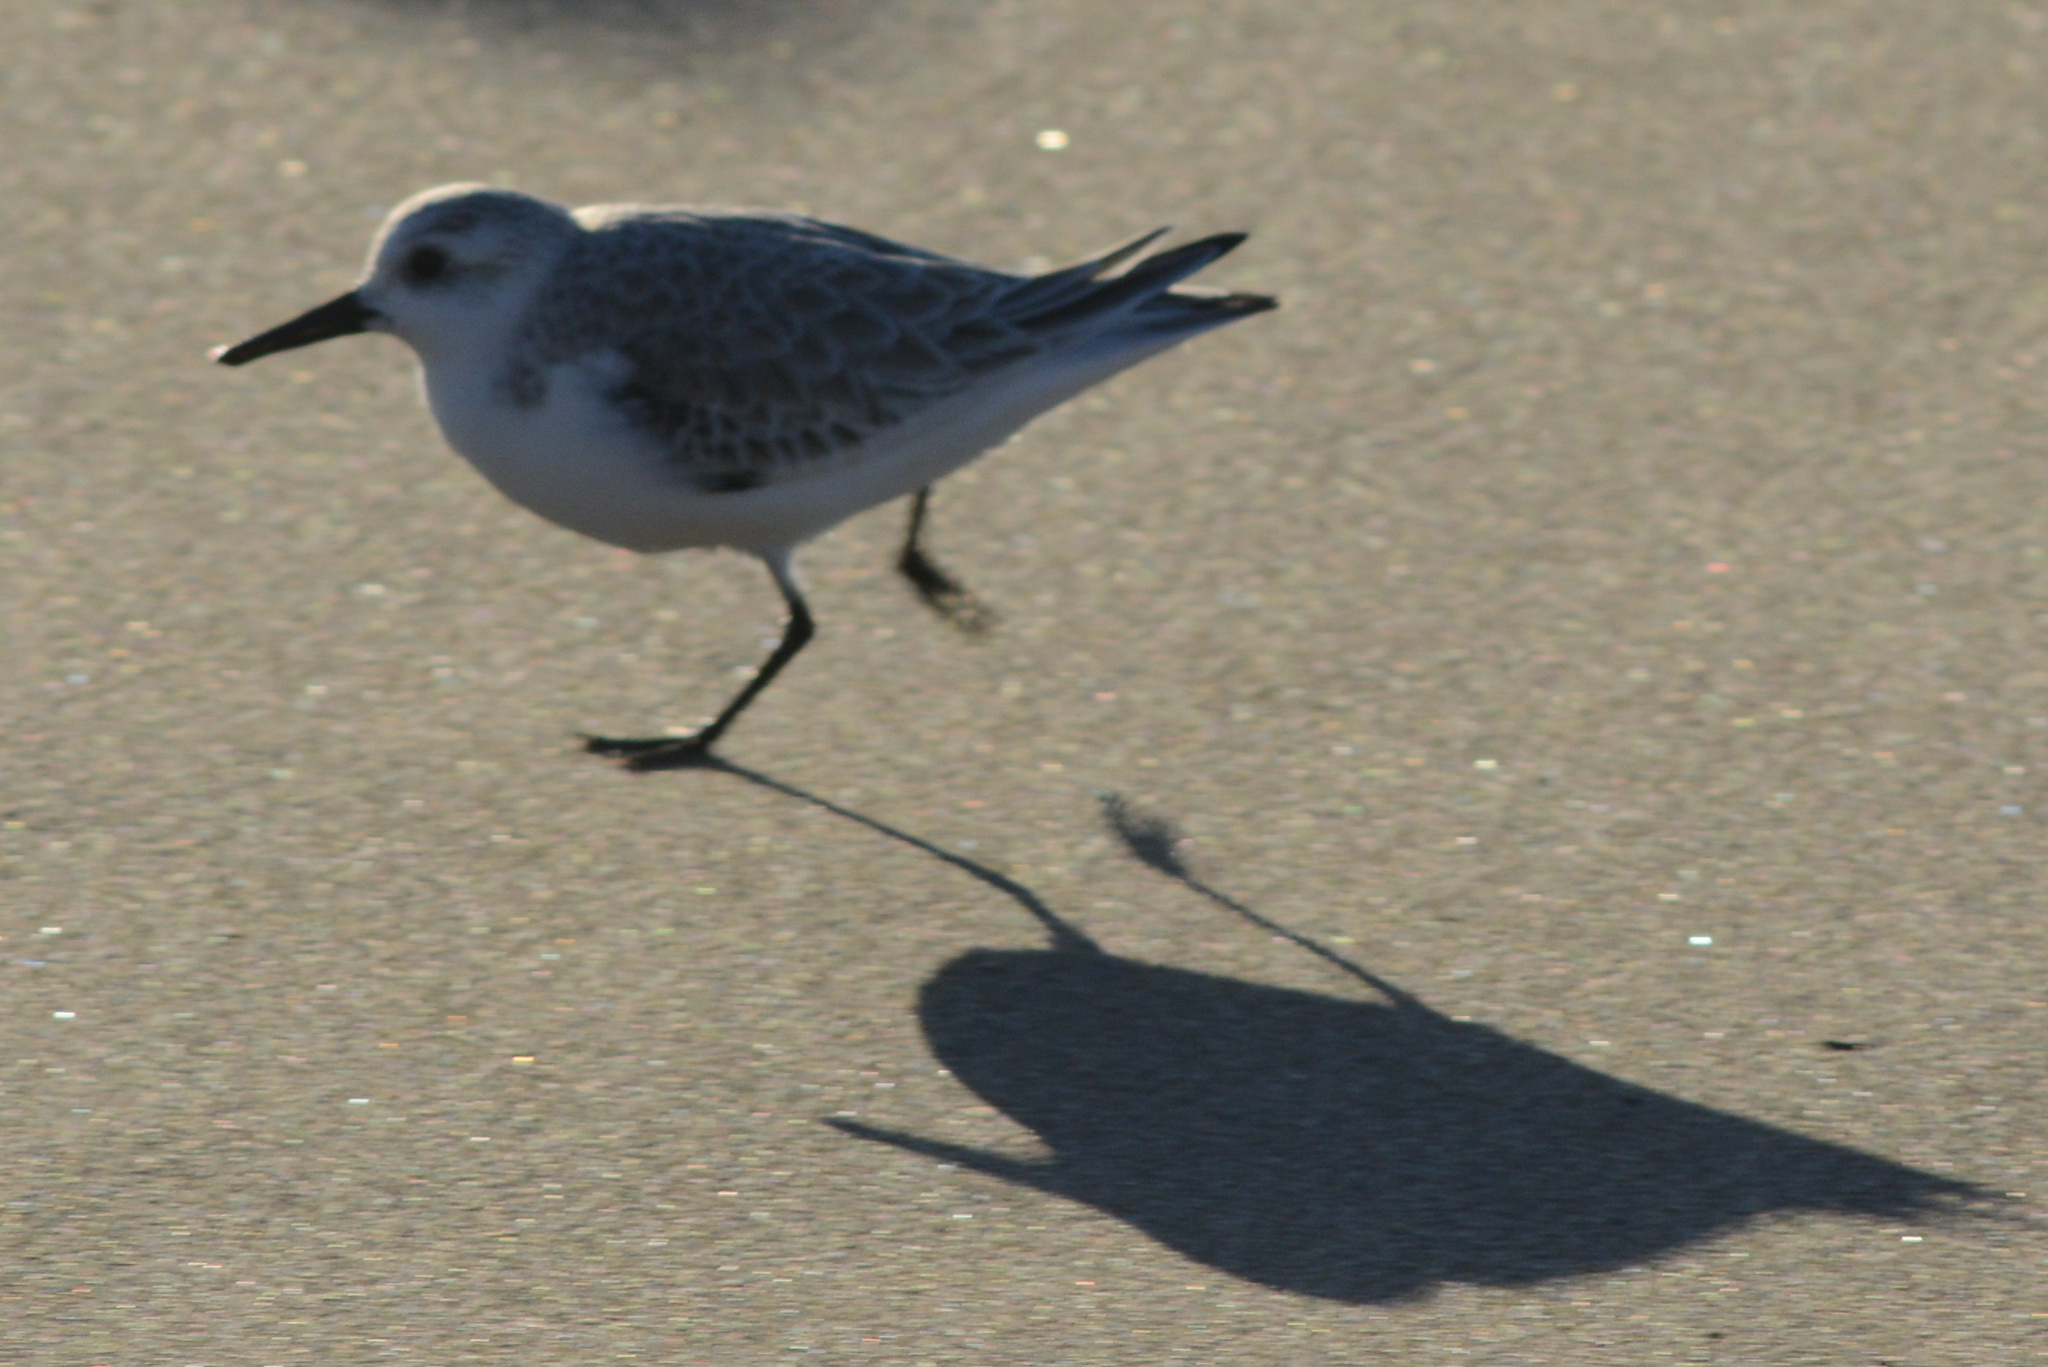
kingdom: Animalia
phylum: Chordata
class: Aves
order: Charadriiformes
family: Scolopacidae
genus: Calidris
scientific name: Calidris alba
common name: Sanderling
